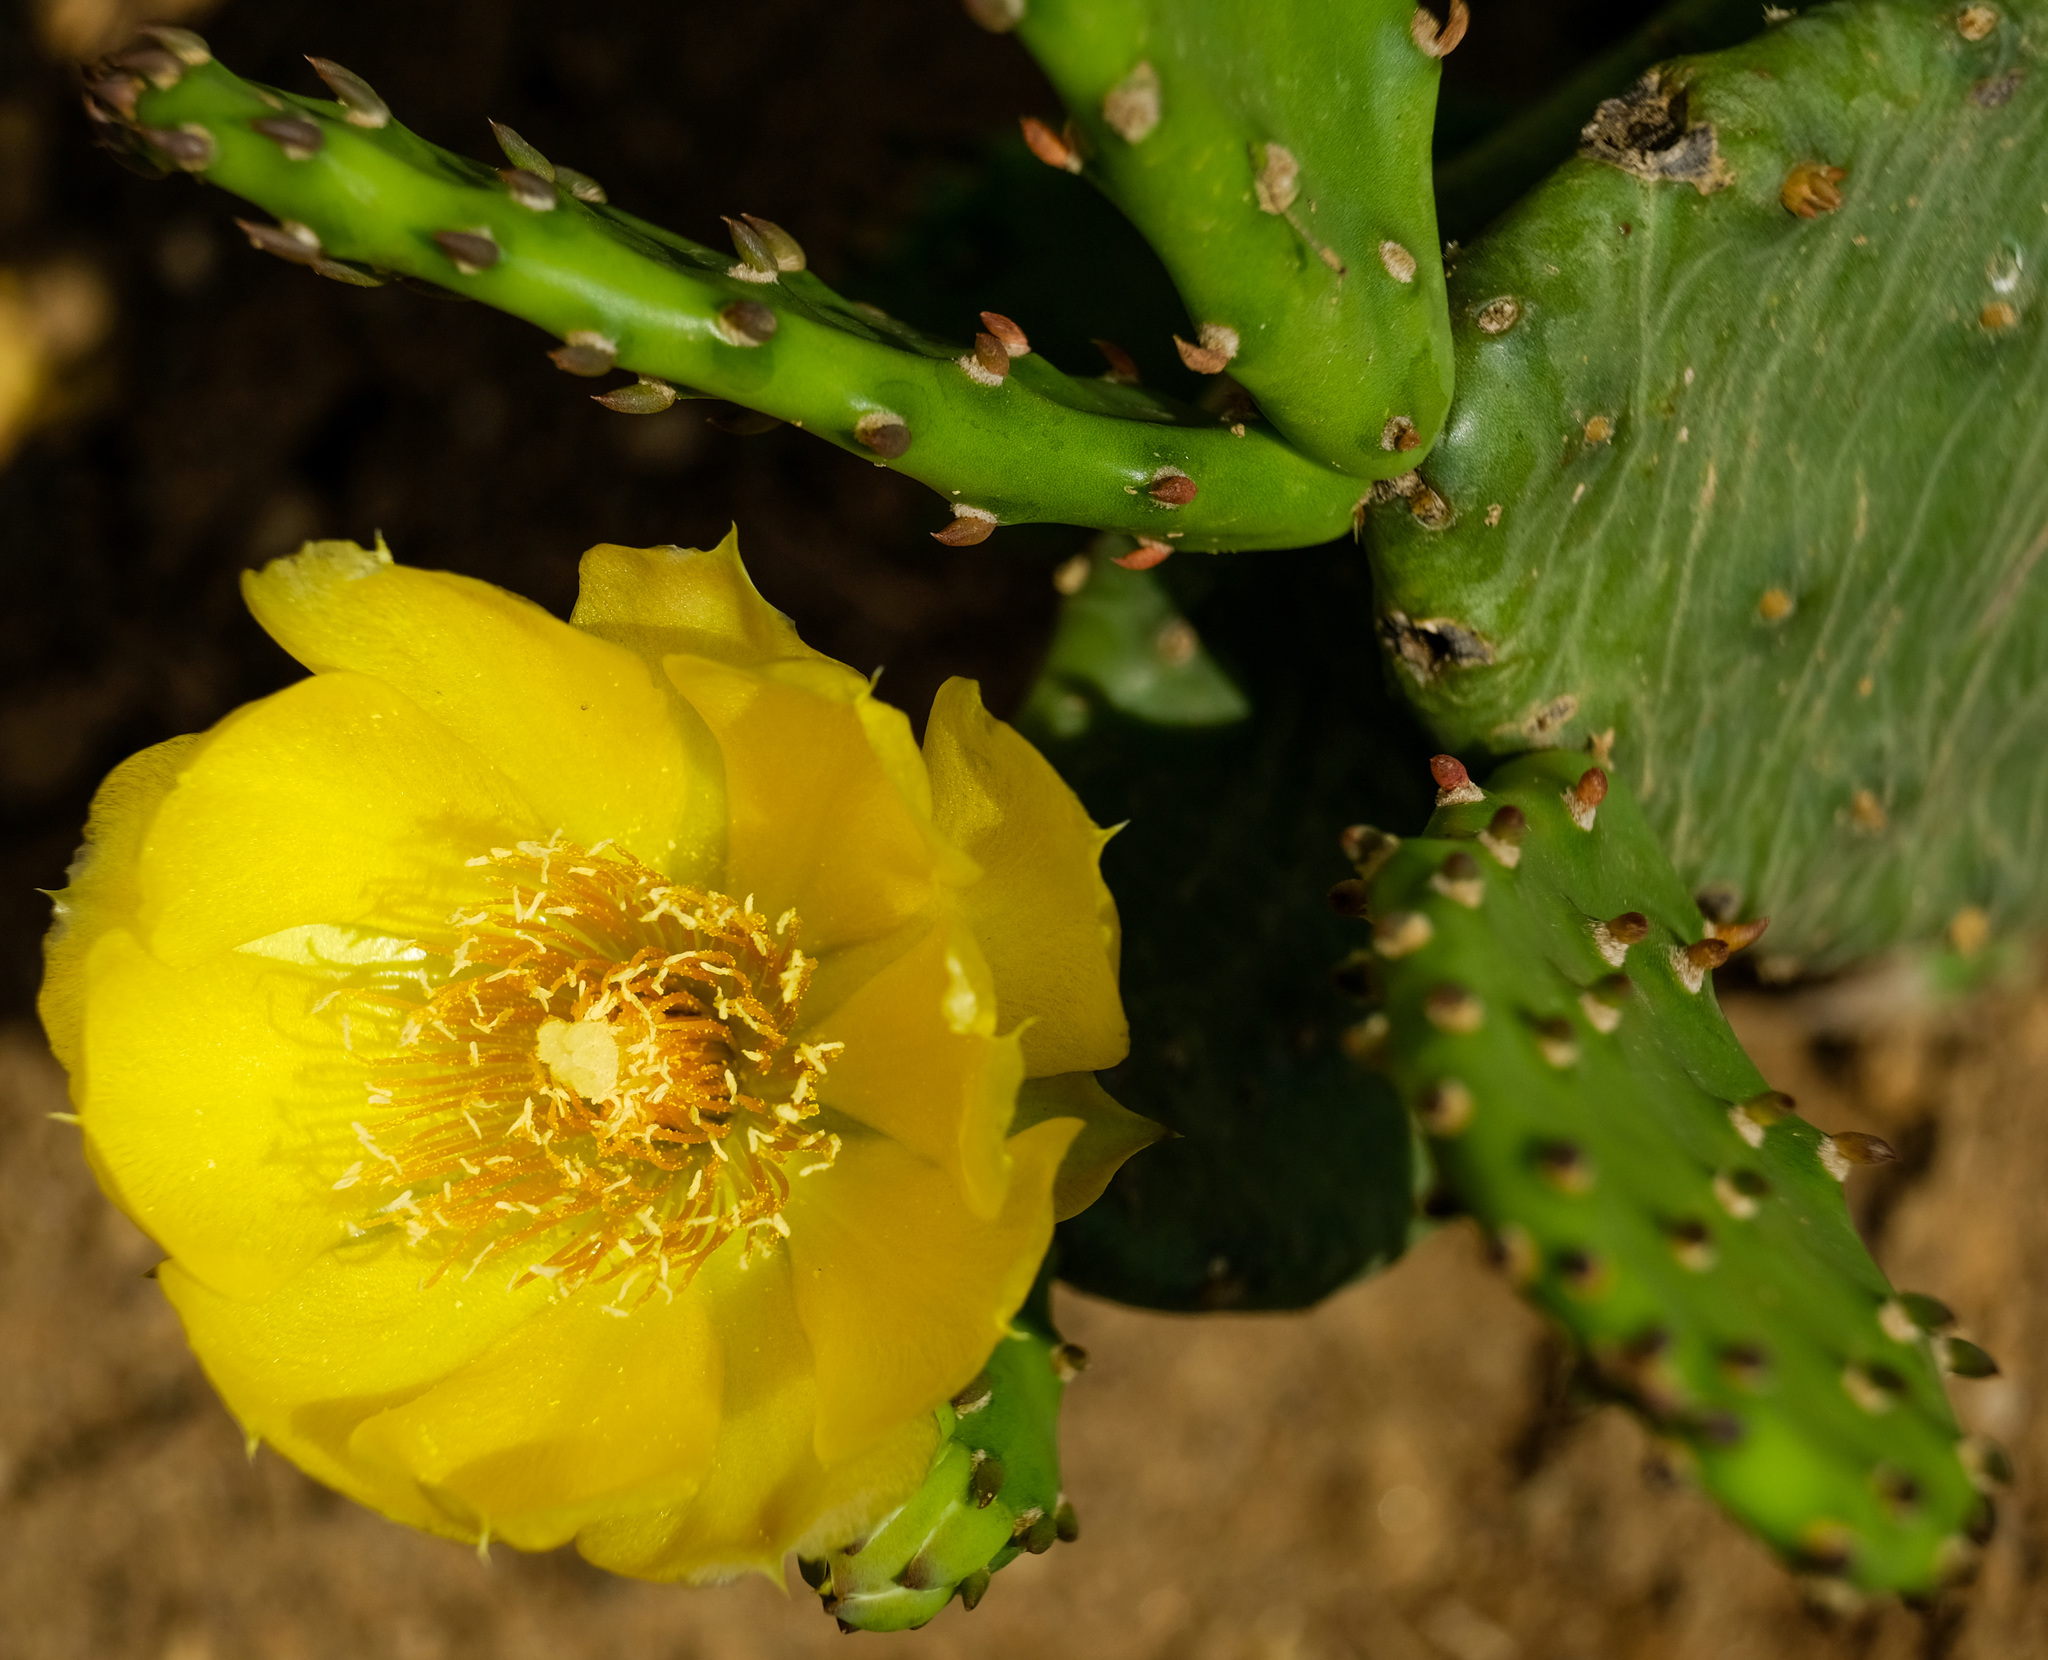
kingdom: Plantae
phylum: Tracheophyta
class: Magnoliopsida
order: Caryophyllales
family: Cactaceae
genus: Opuntia
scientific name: Opuntia humifusa
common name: Eastern prickly-pear
